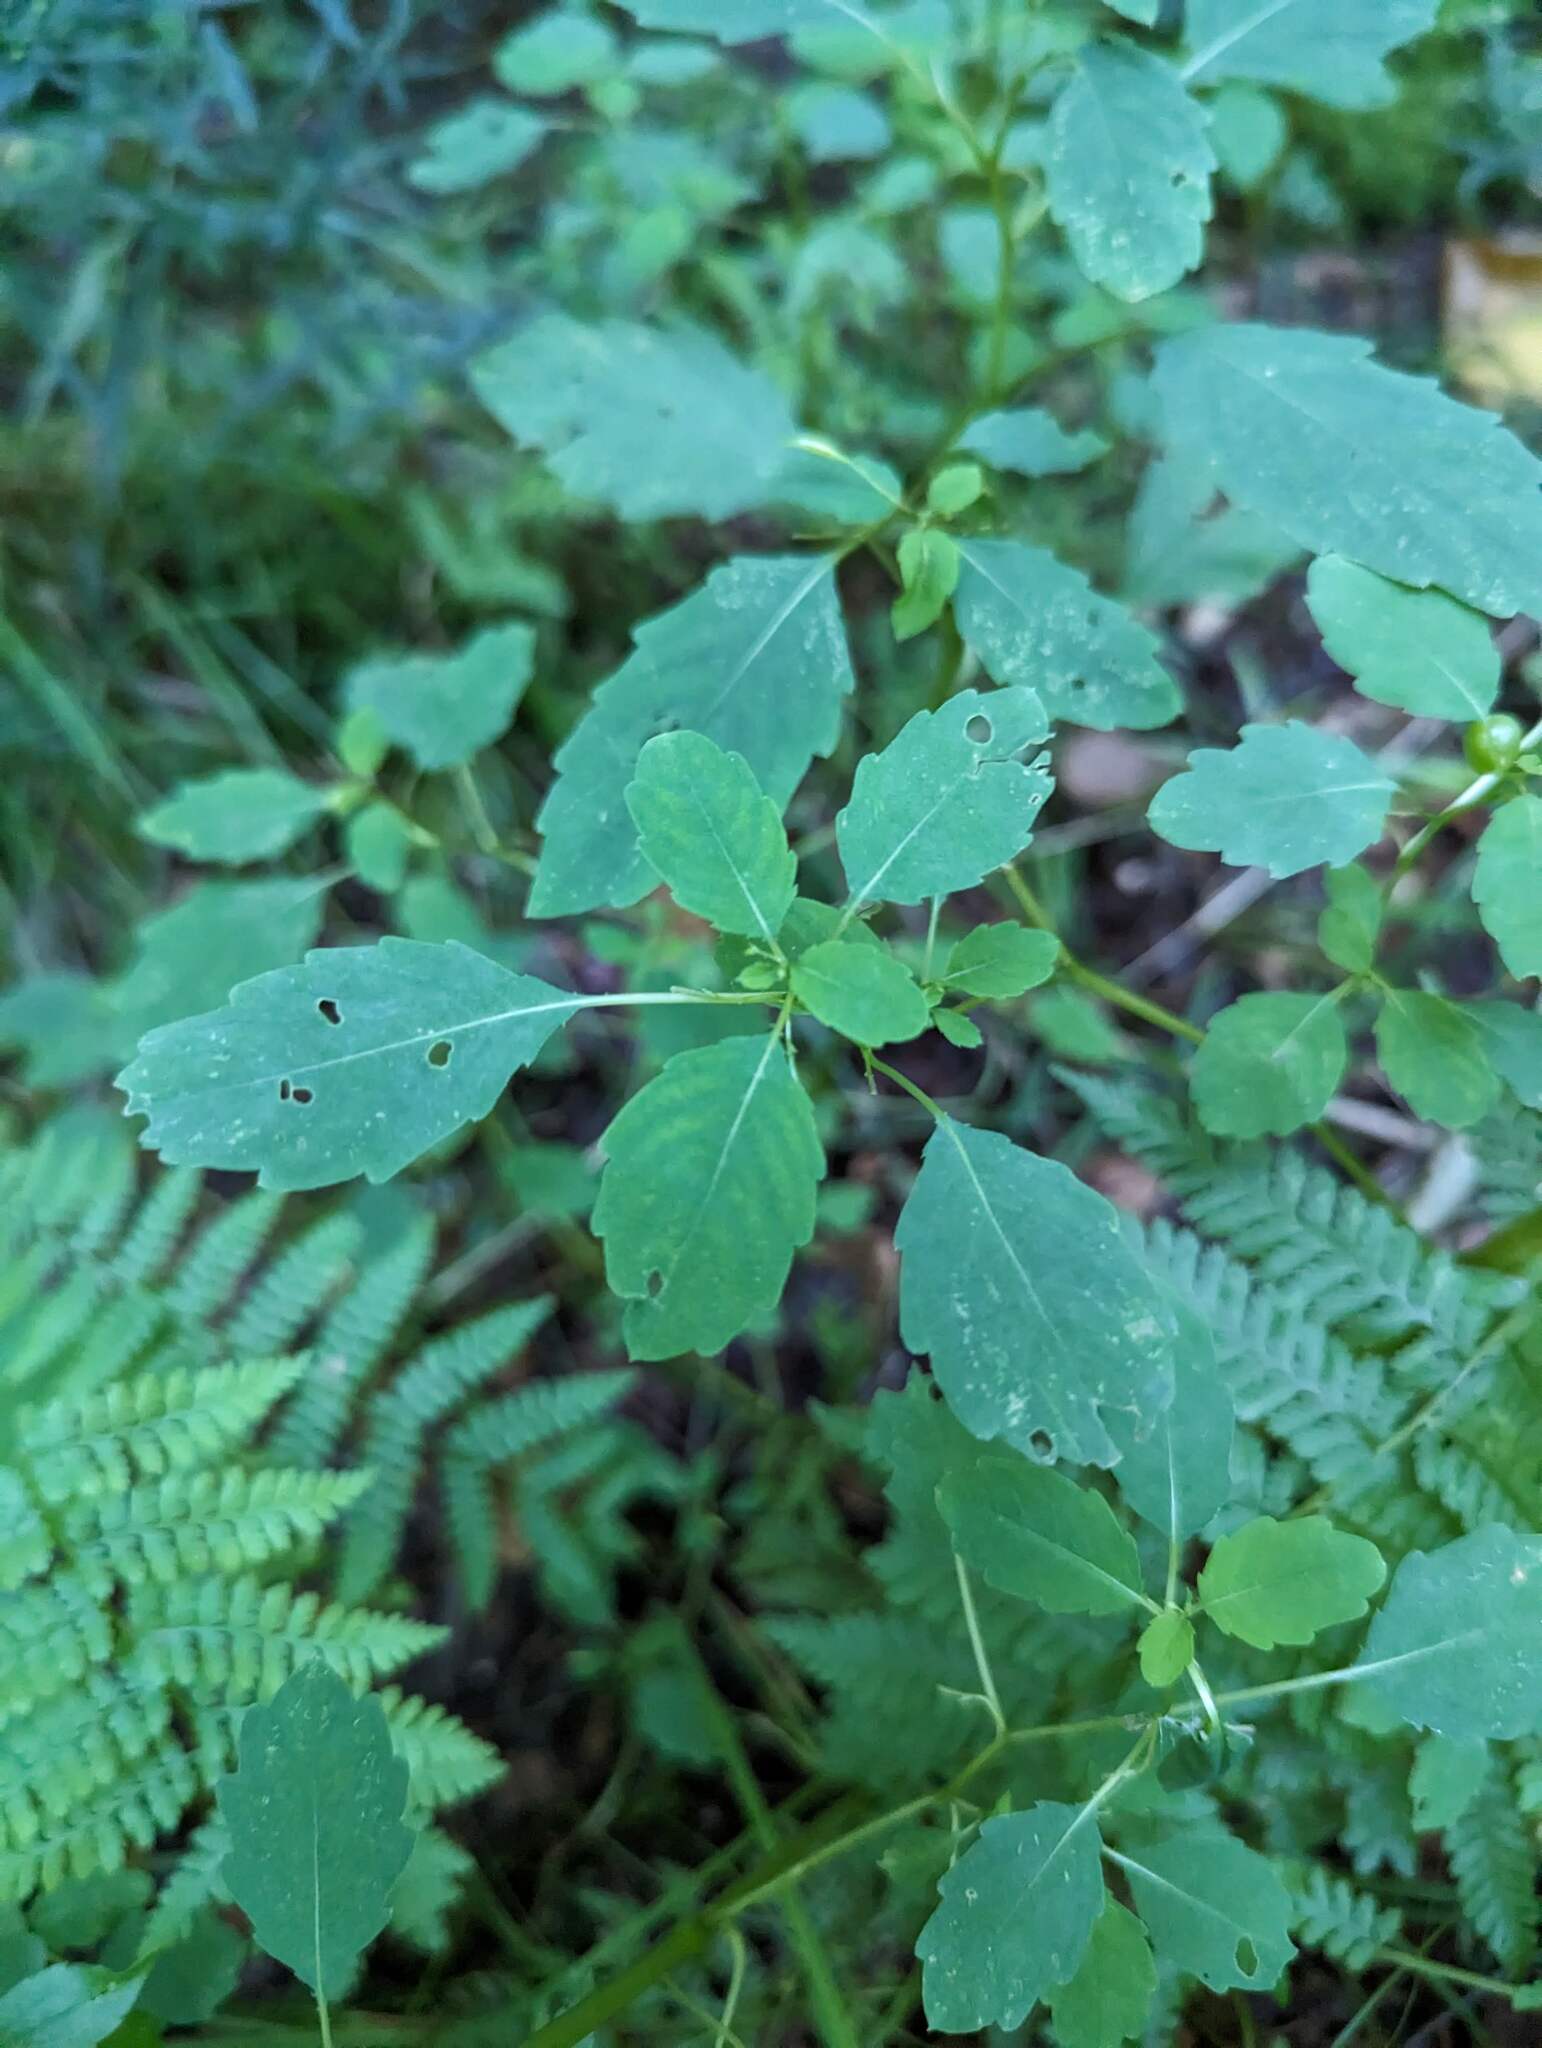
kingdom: Plantae
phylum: Tracheophyta
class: Magnoliopsida
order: Ericales
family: Balsaminaceae
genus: Impatiens
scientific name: Impatiens capensis
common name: Orange balsam
